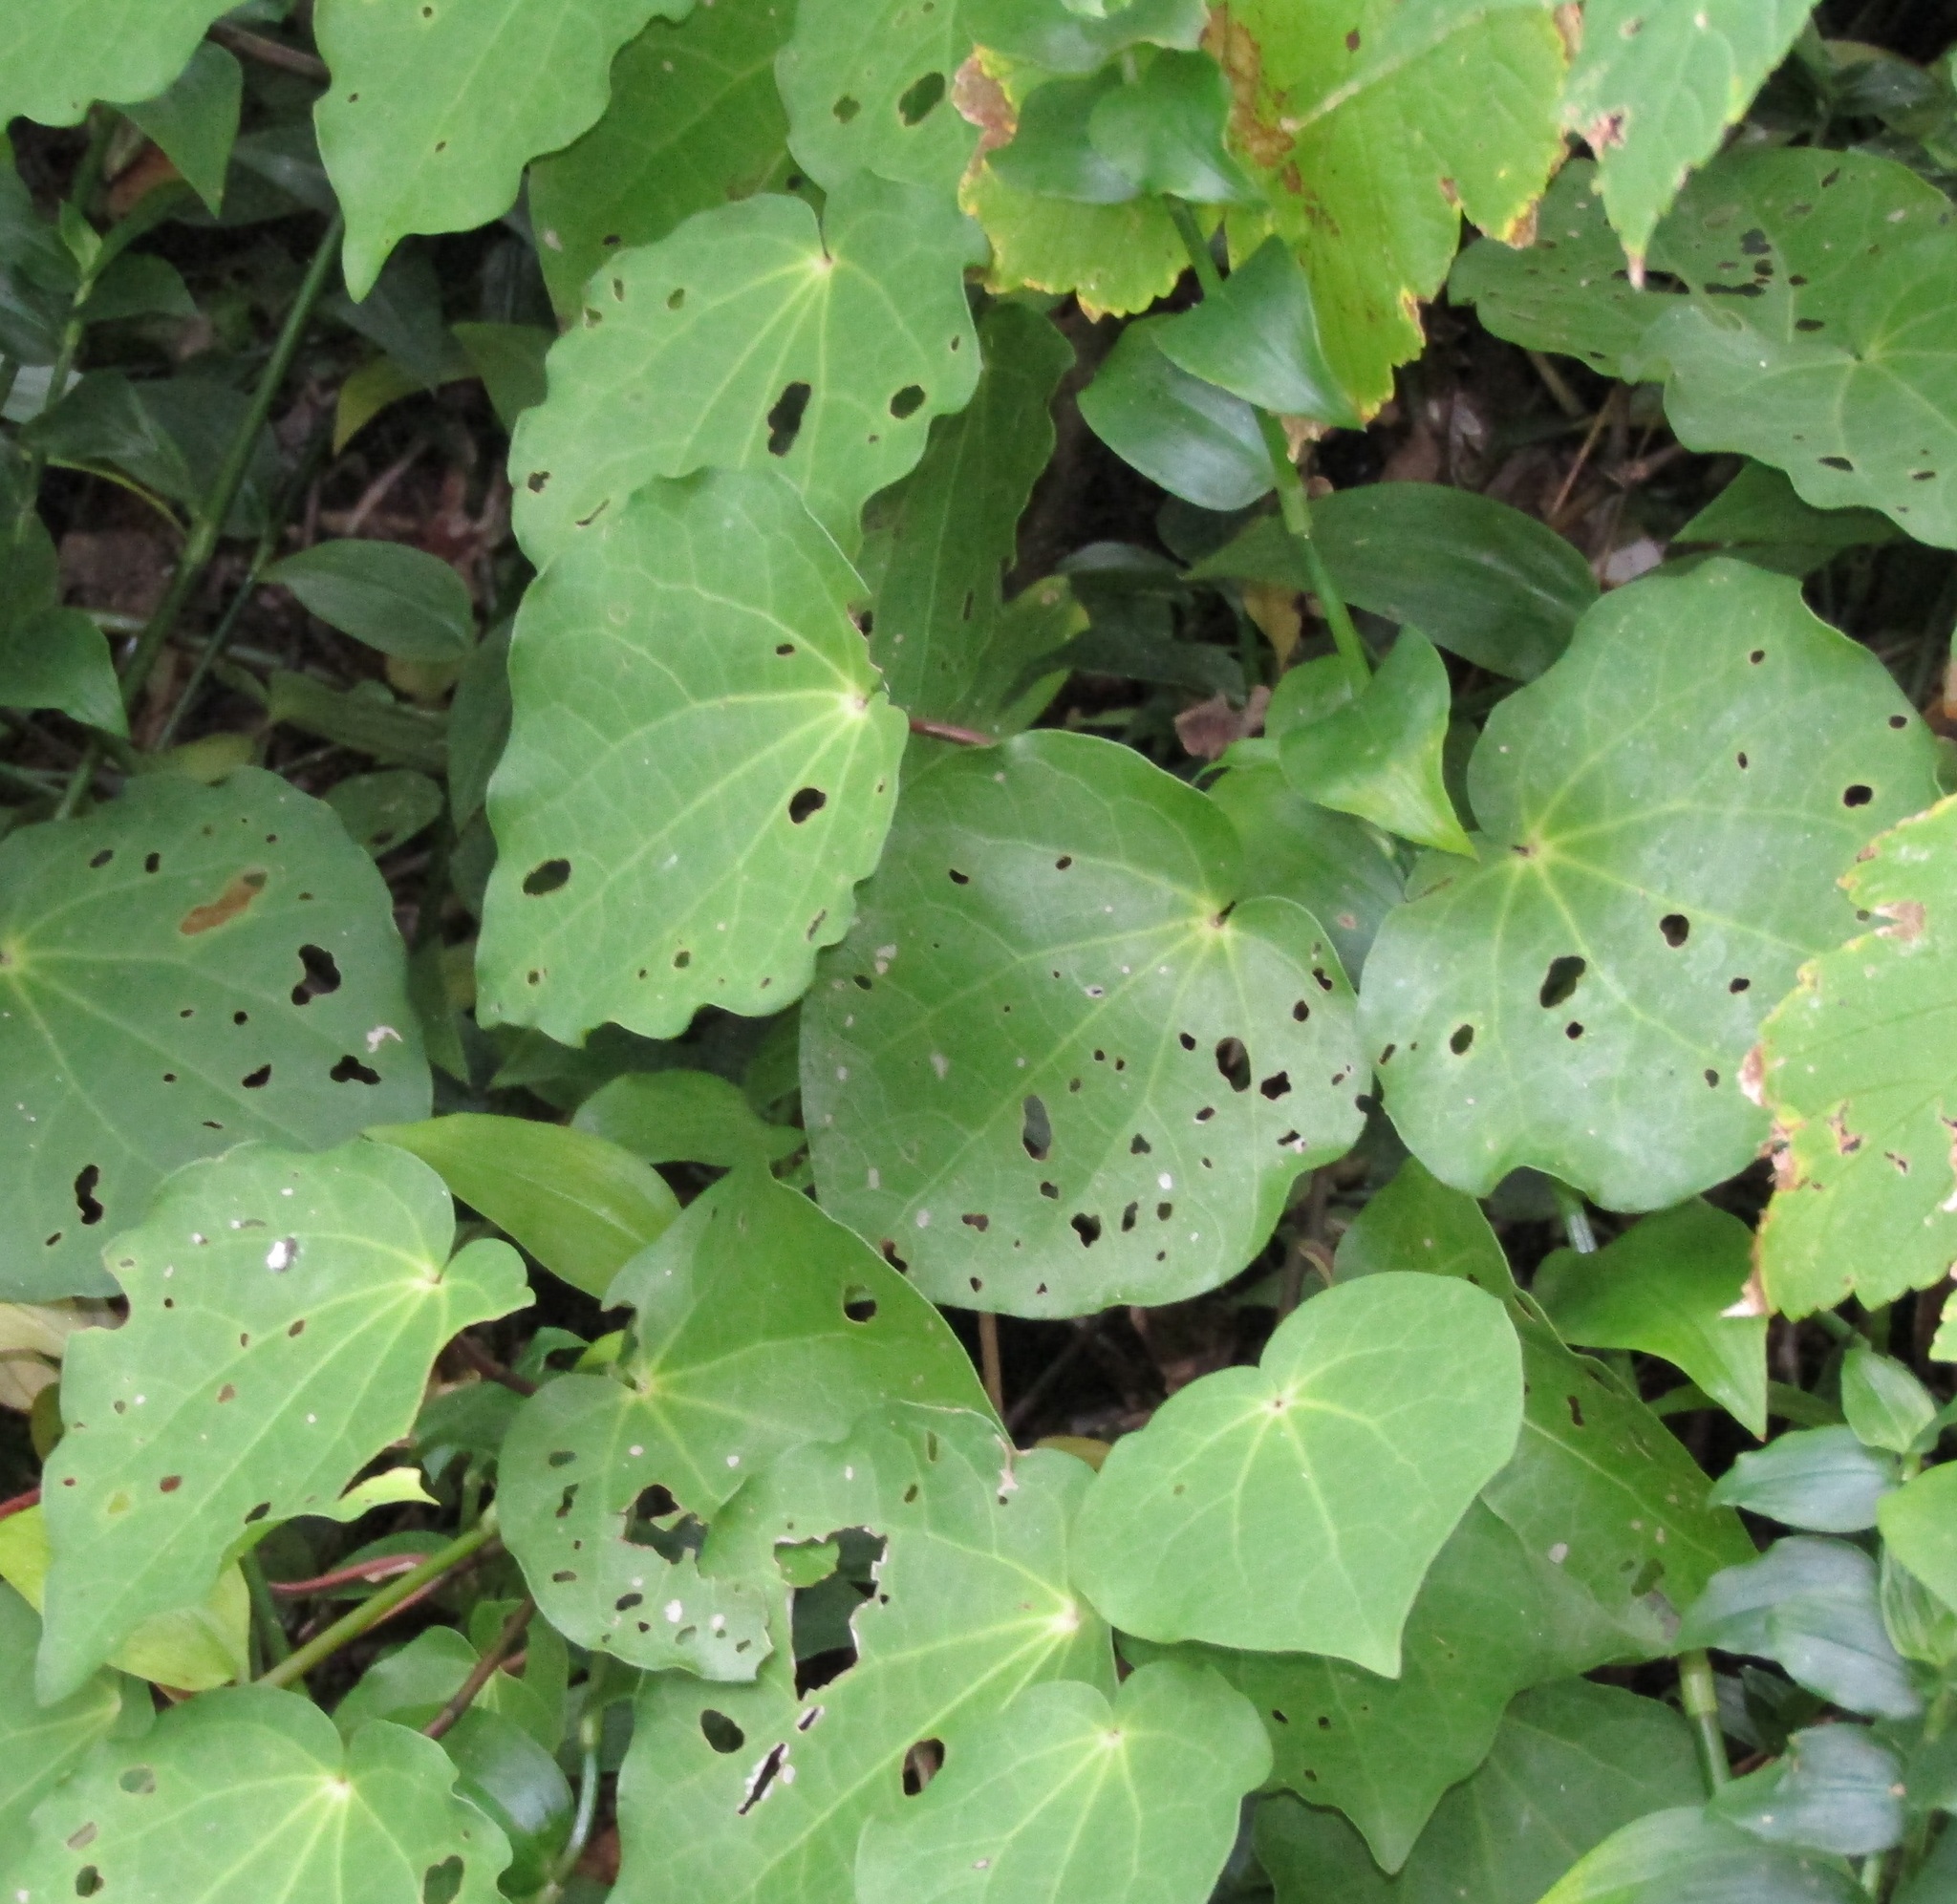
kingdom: Plantae
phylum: Tracheophyta
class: Magnoliopsida
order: Piperales
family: Piperaceae
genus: Macropiper
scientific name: Macropiper excelsum
